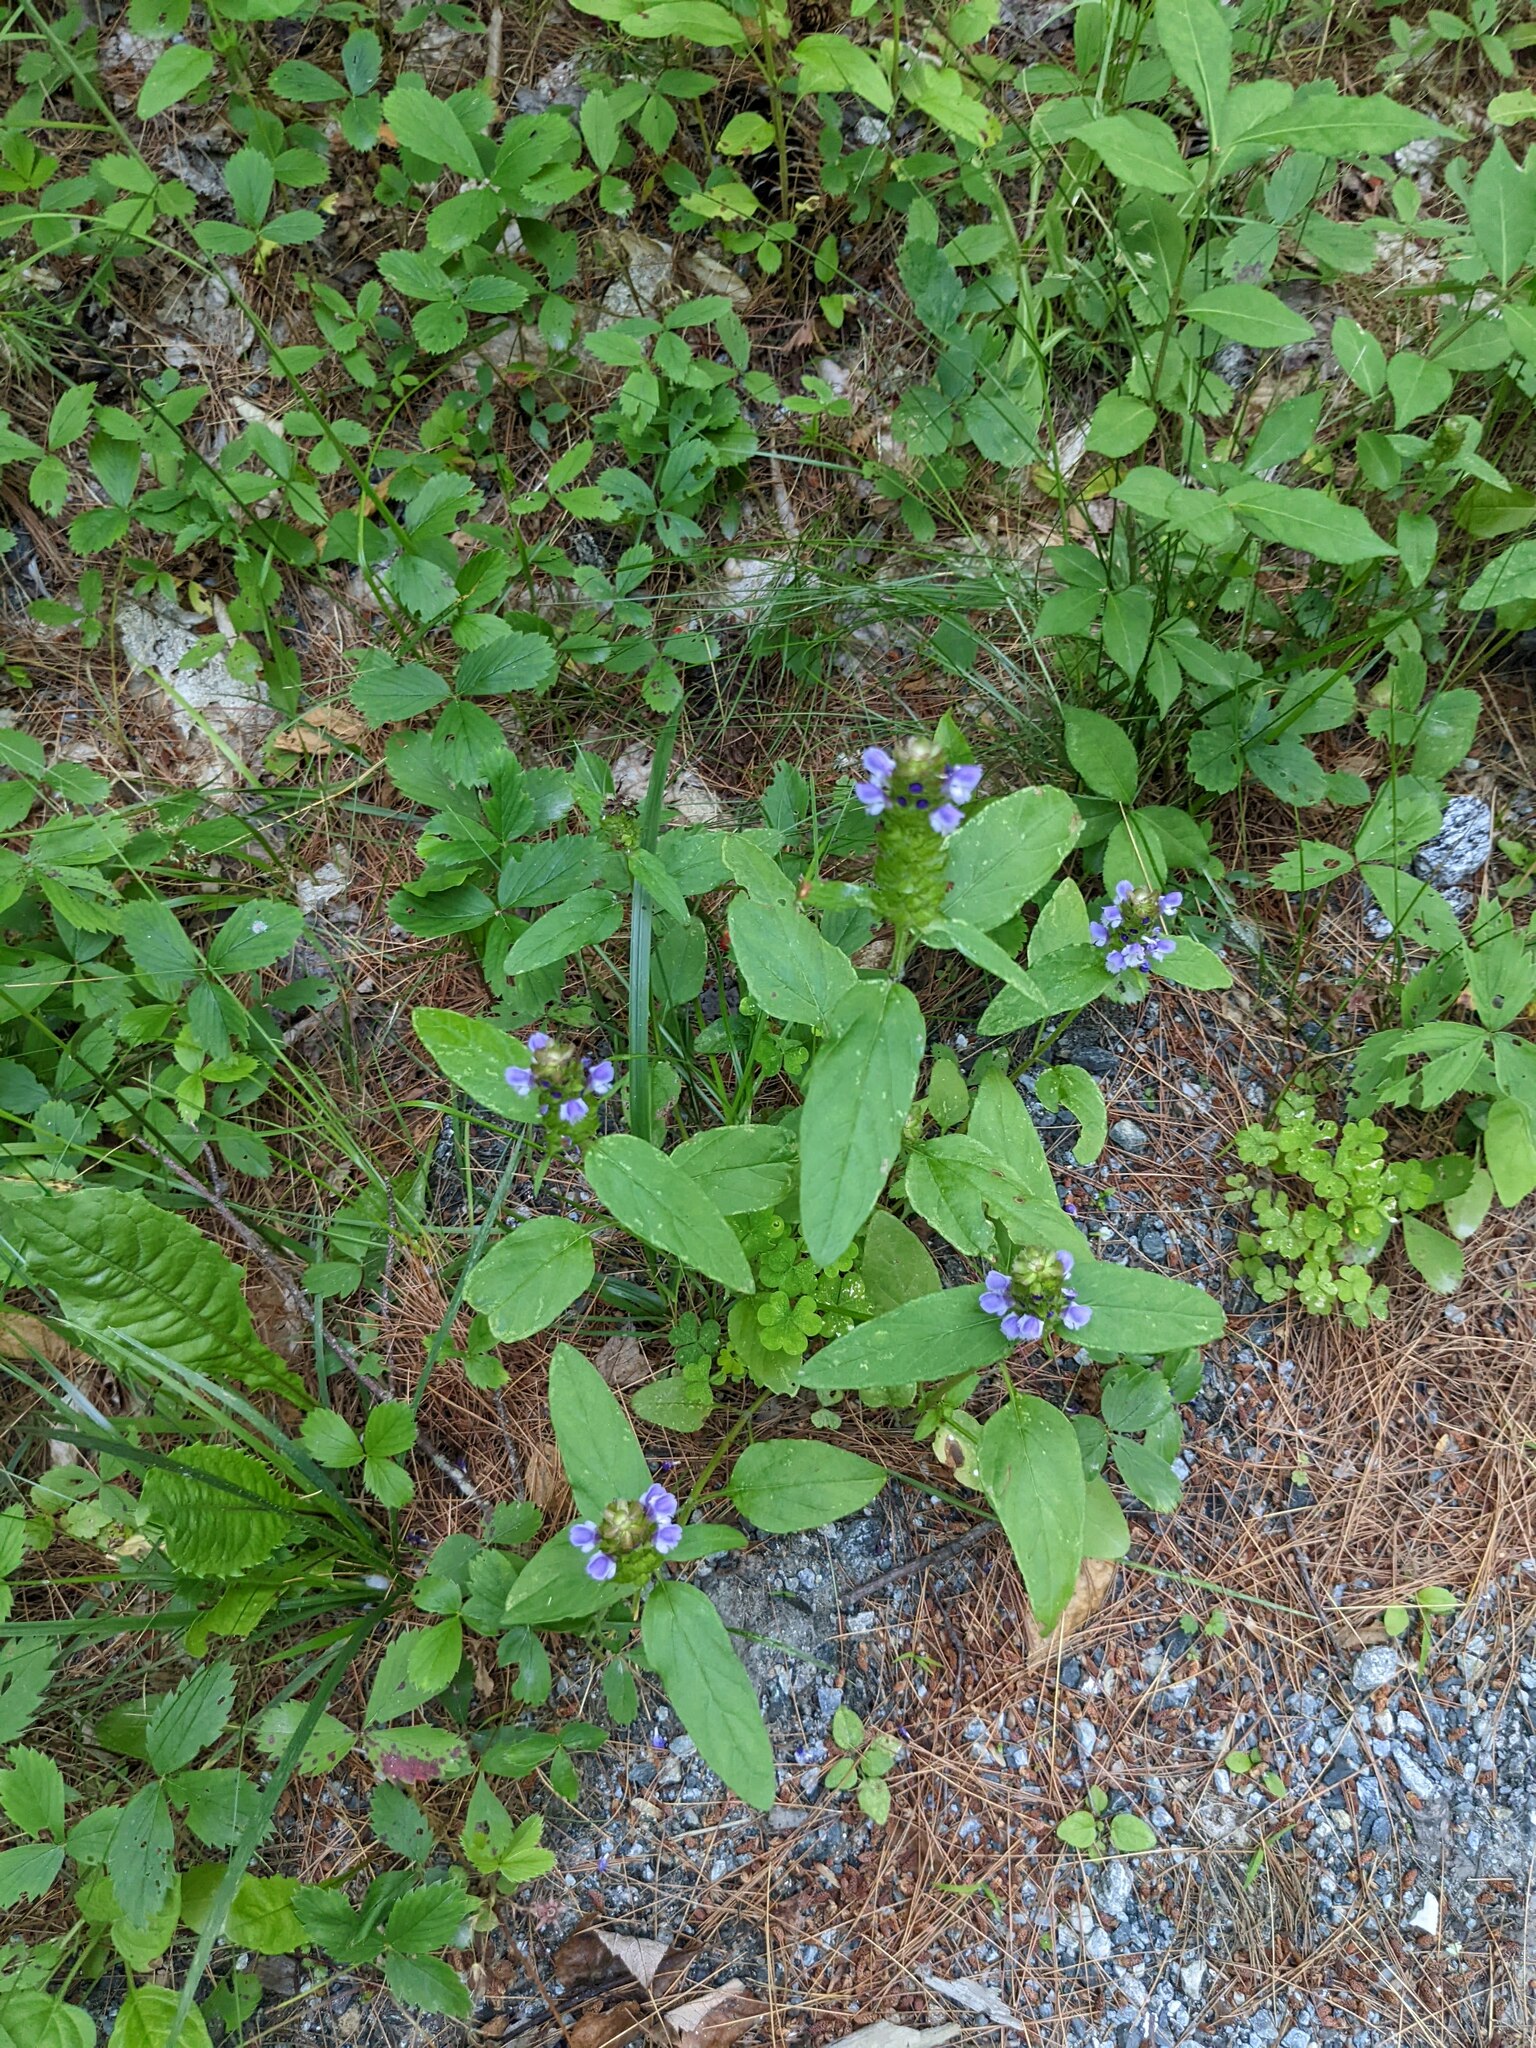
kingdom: Plantae
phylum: Tracheophyta
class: Magnoliopsida
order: Lamiales
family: Lamiaceae
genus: Prunella
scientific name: Prunella vulgaris
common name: Heal-all
